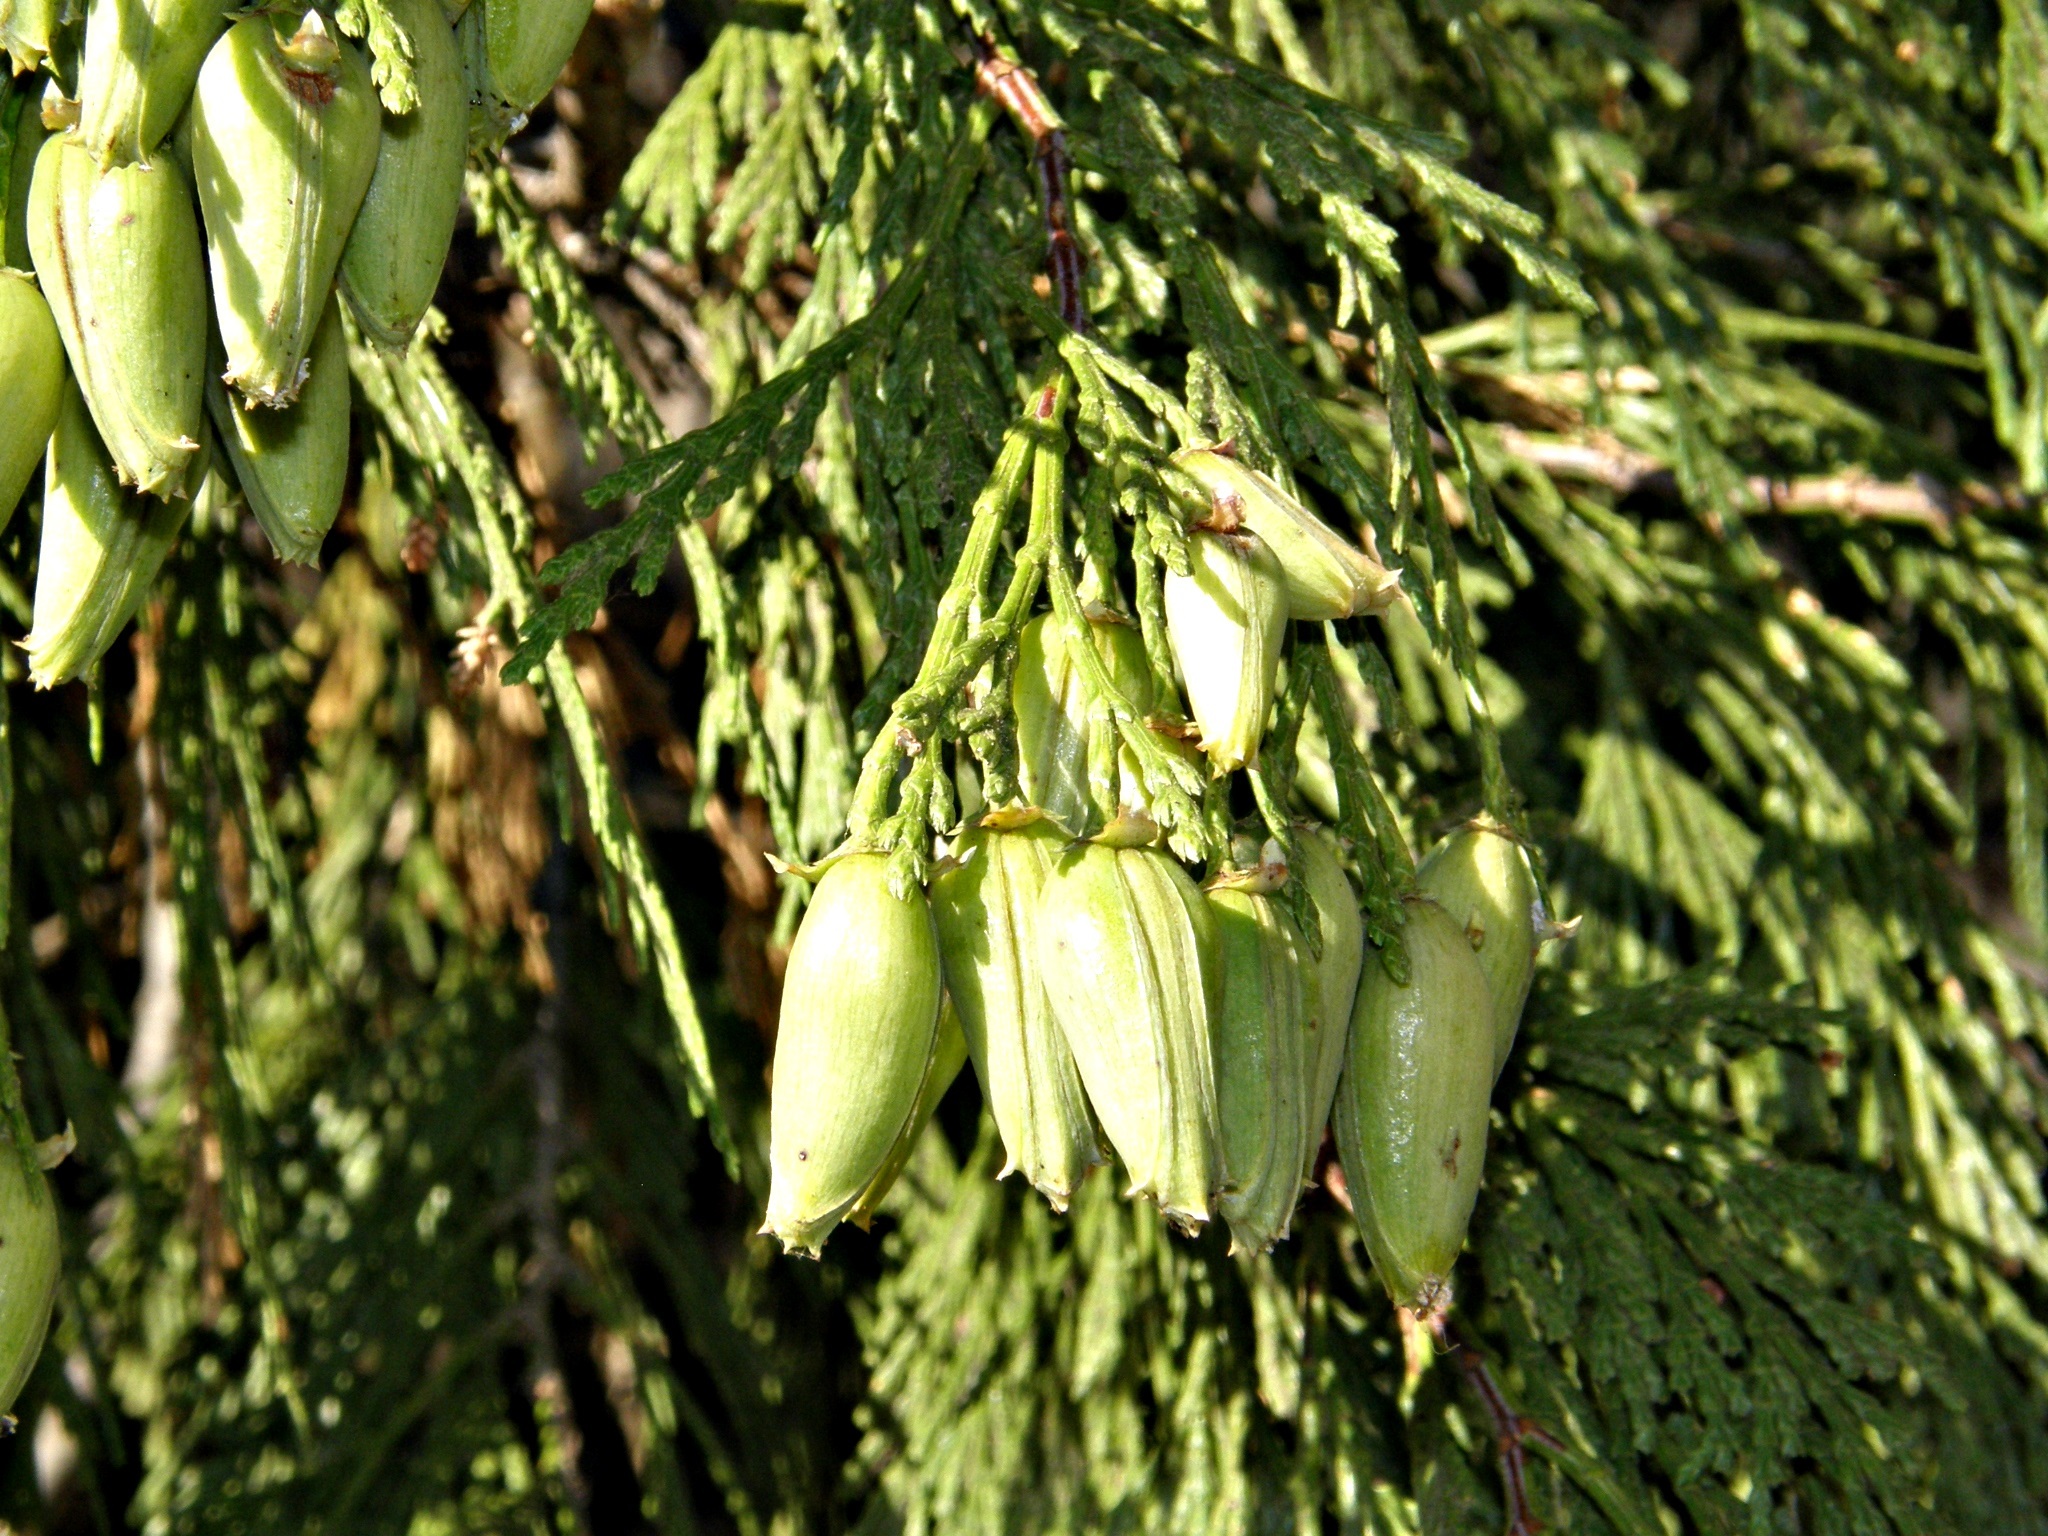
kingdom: Plantae
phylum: Tracheophyta
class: Pinopsida
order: Pinales
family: Cupressaceae
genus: Calocedrus
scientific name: Calocedrus decurrens
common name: Californian incense-cedar
